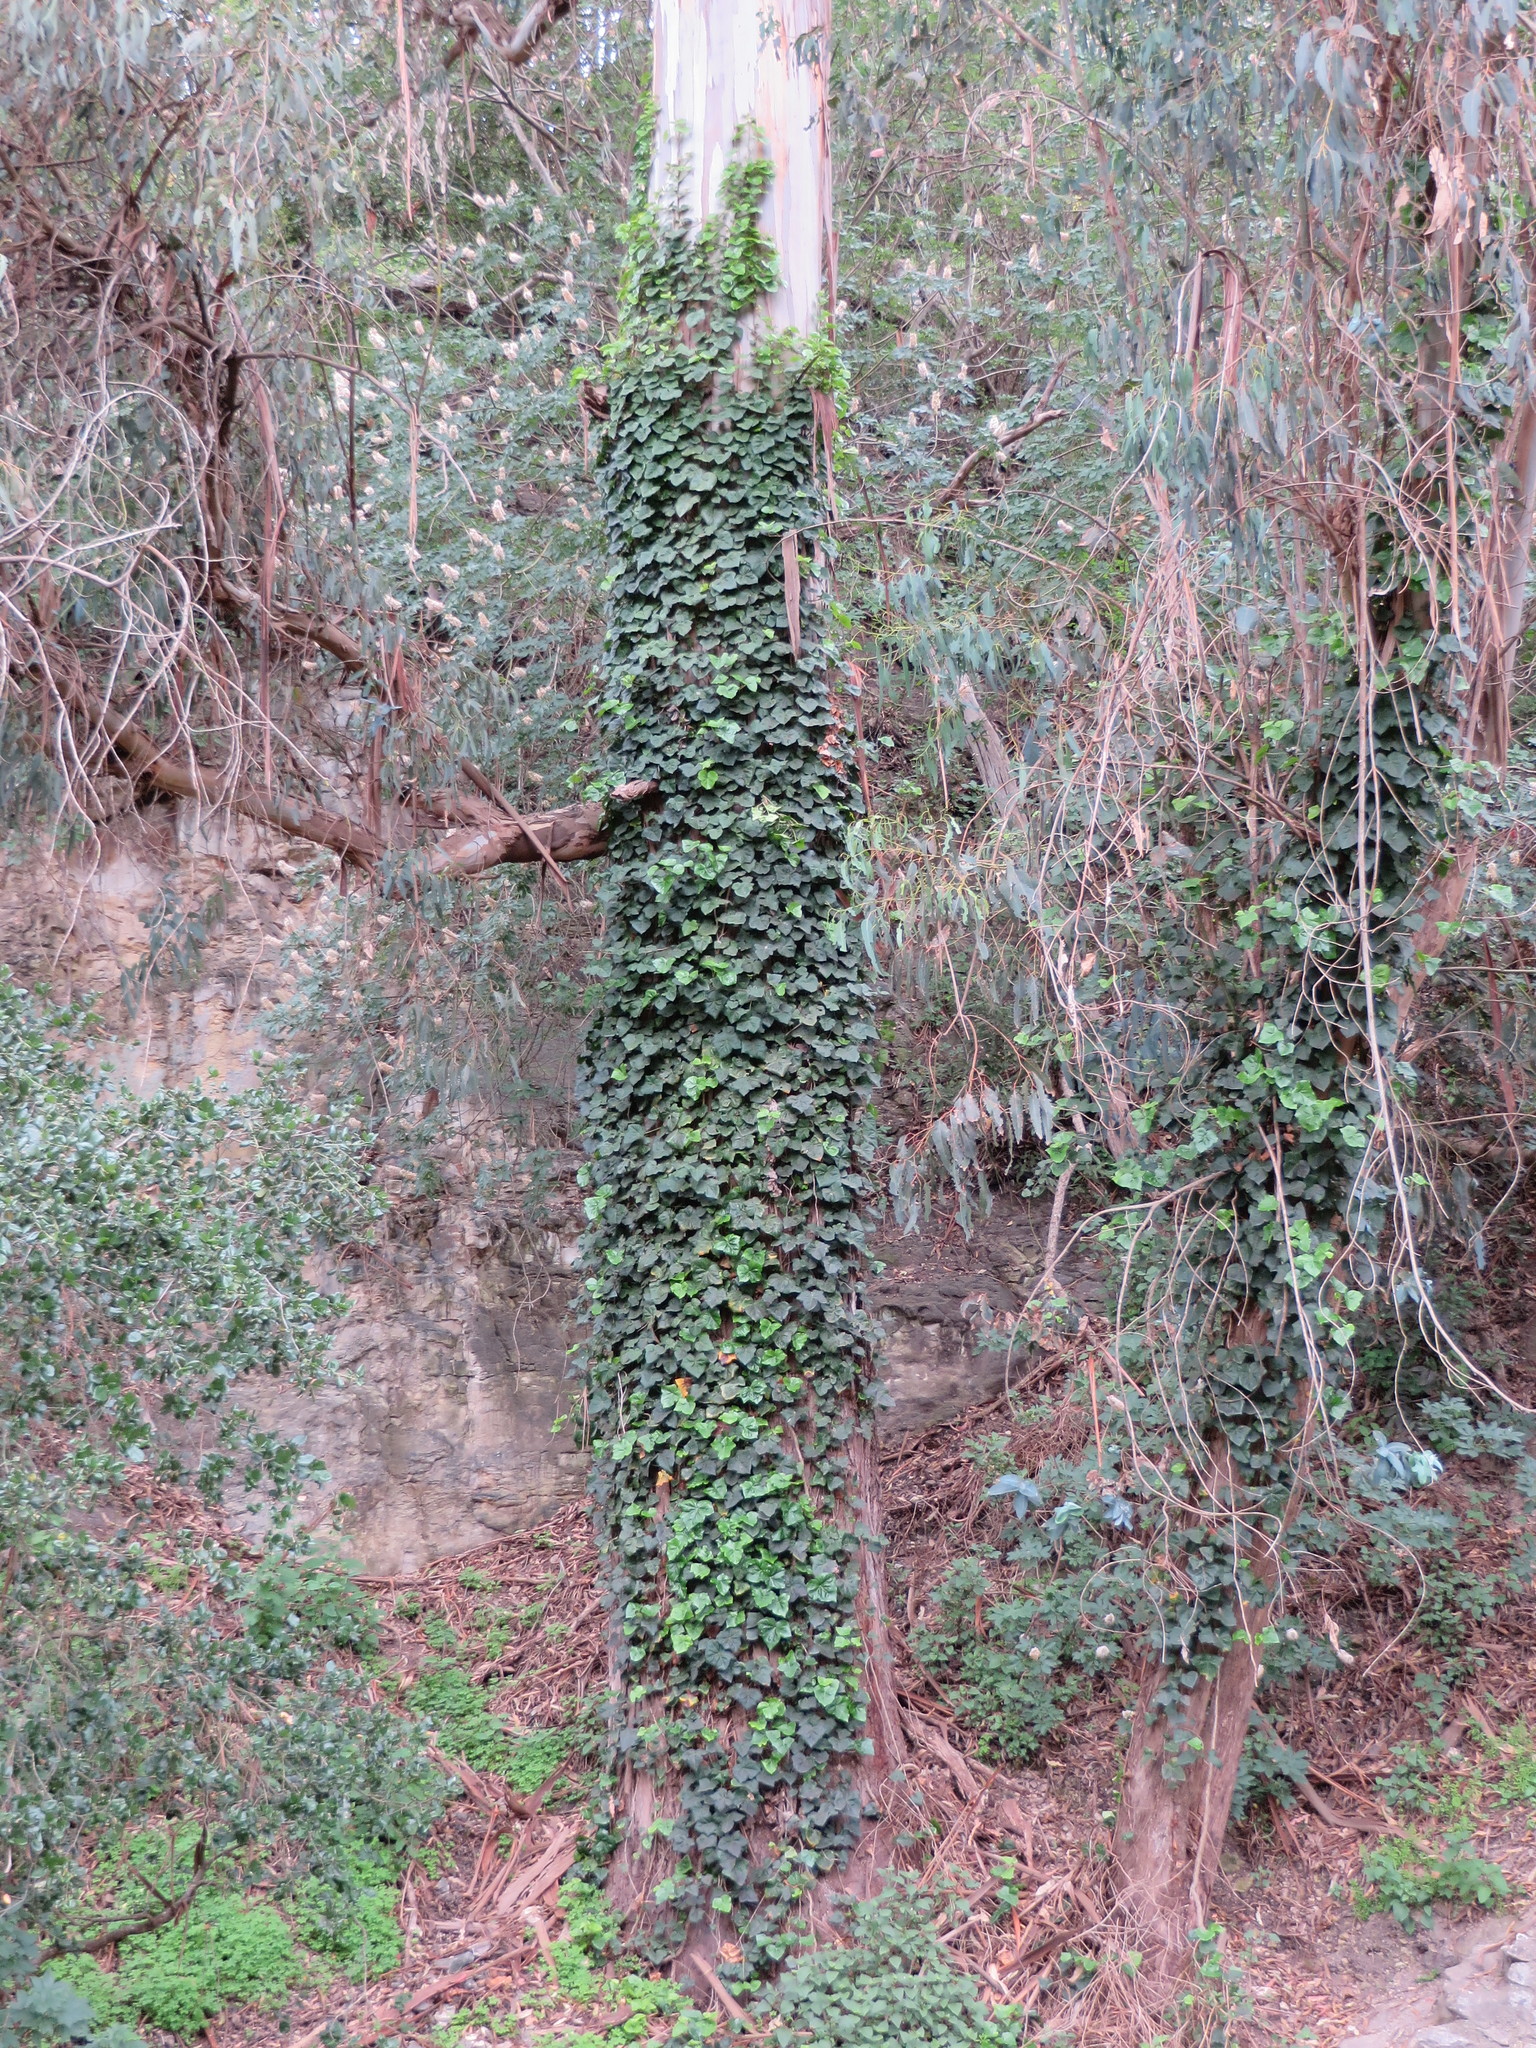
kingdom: Plantae
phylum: Tracheophyta
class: Magnoliopsida
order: Apiales
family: Araliaceae
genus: Hedera
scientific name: Hedera helix
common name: Ivy
